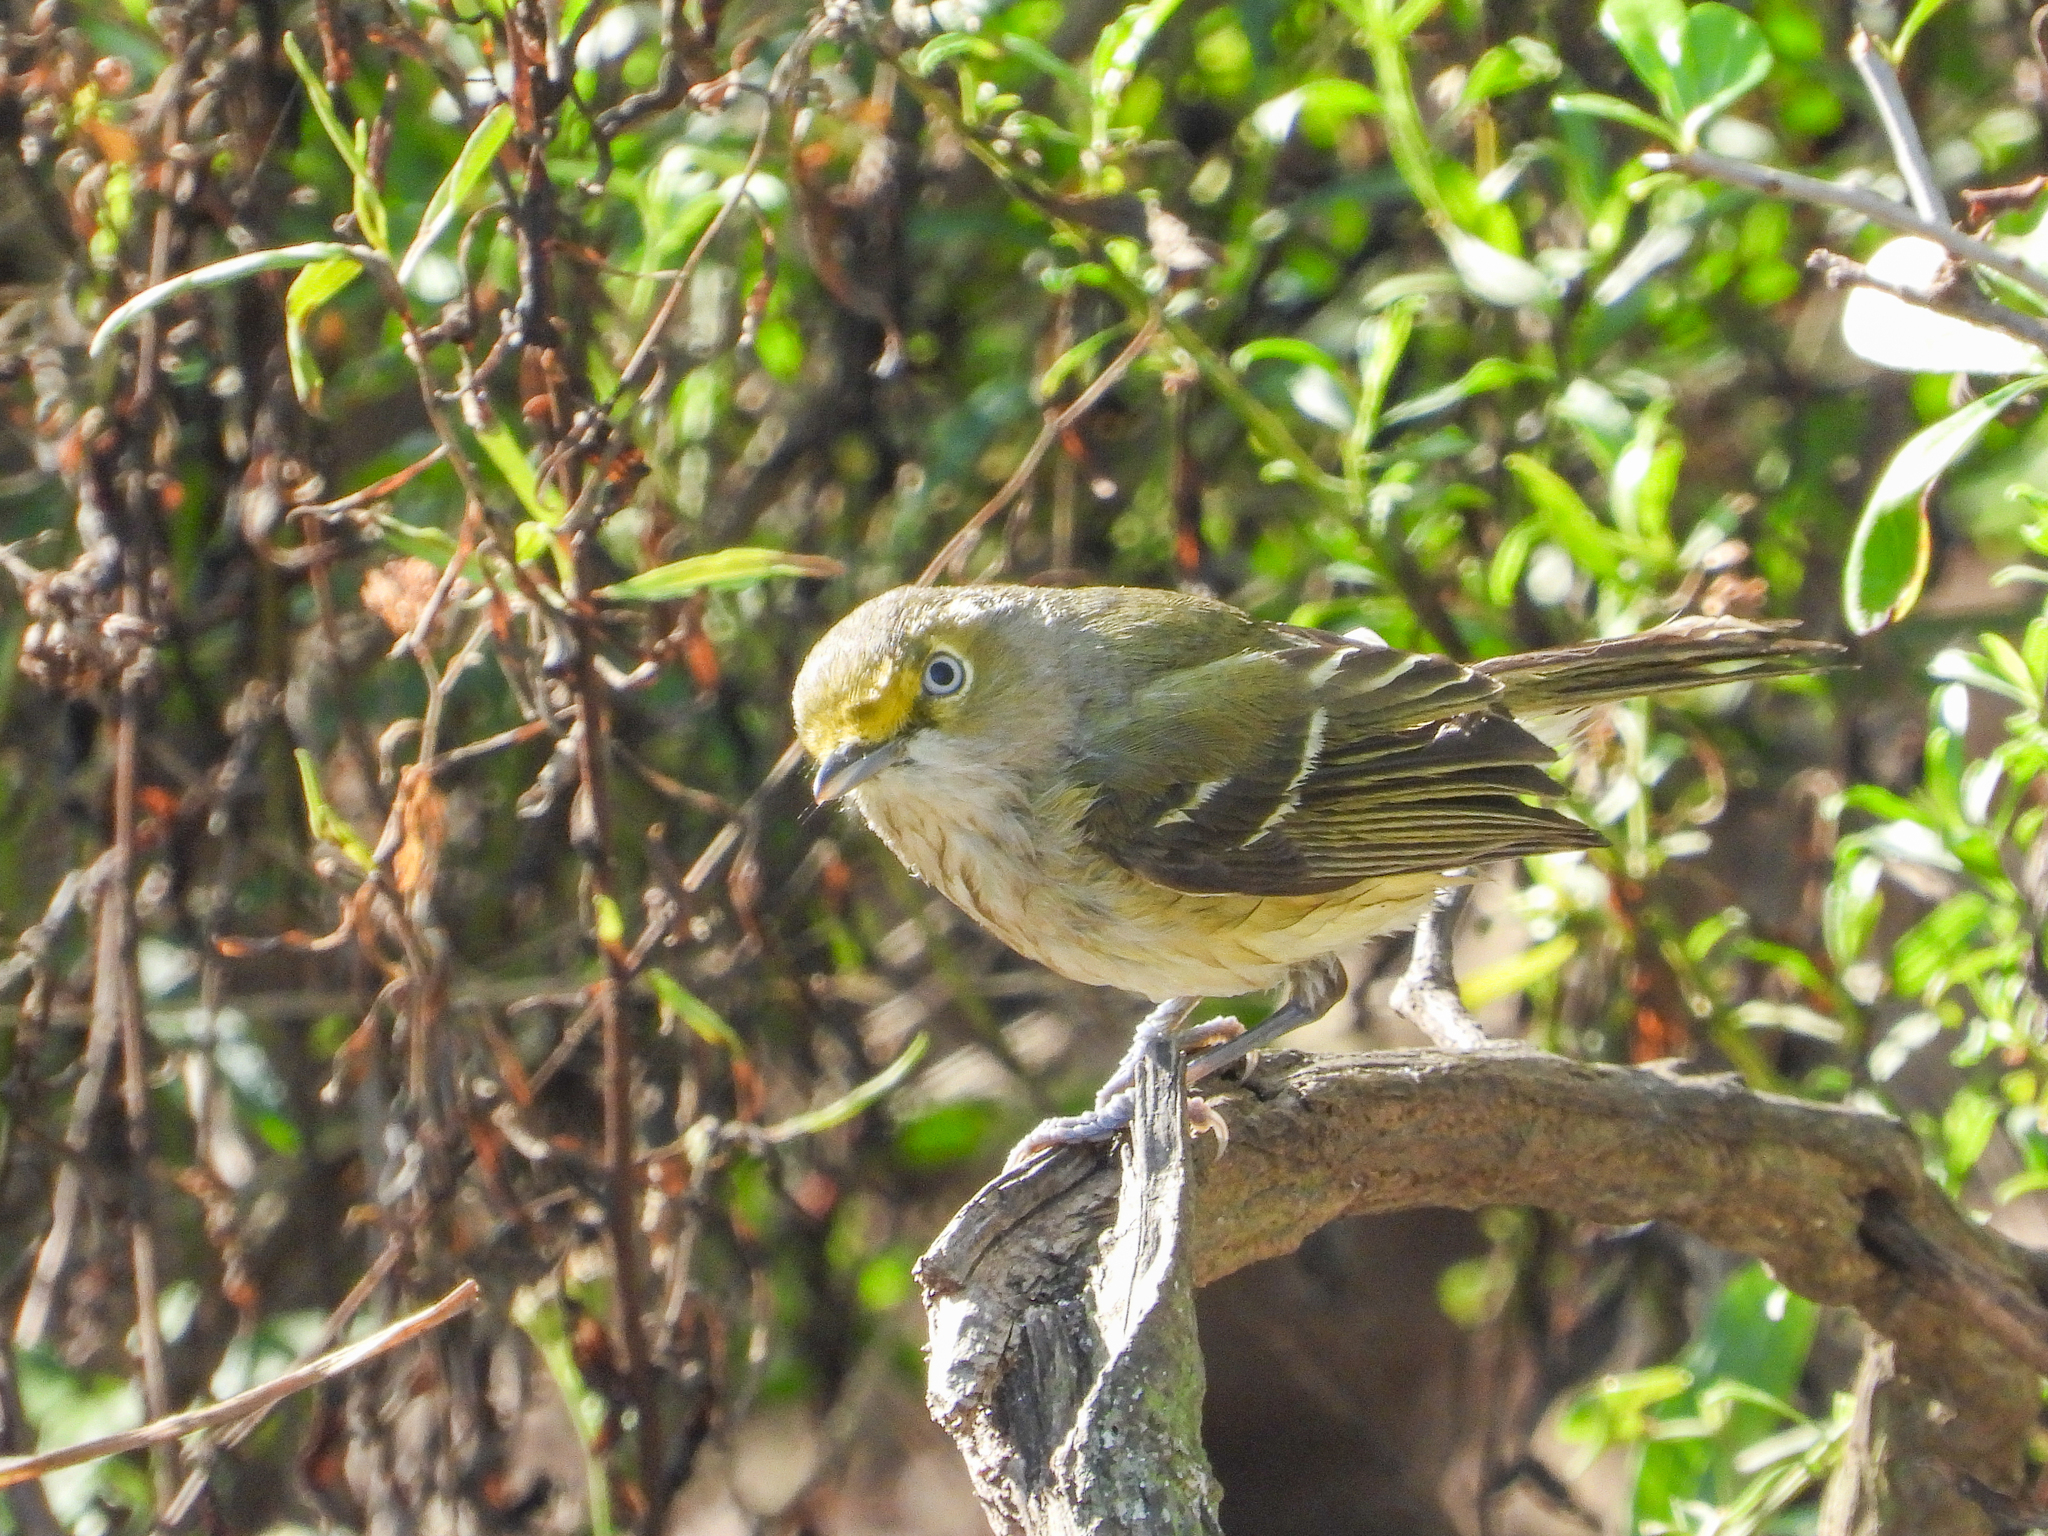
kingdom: Animalia
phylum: Chordata
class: Aves
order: Passeriformes
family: Vireonidae
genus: Vireo
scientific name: Vireo griseus
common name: White-eyed vireo
